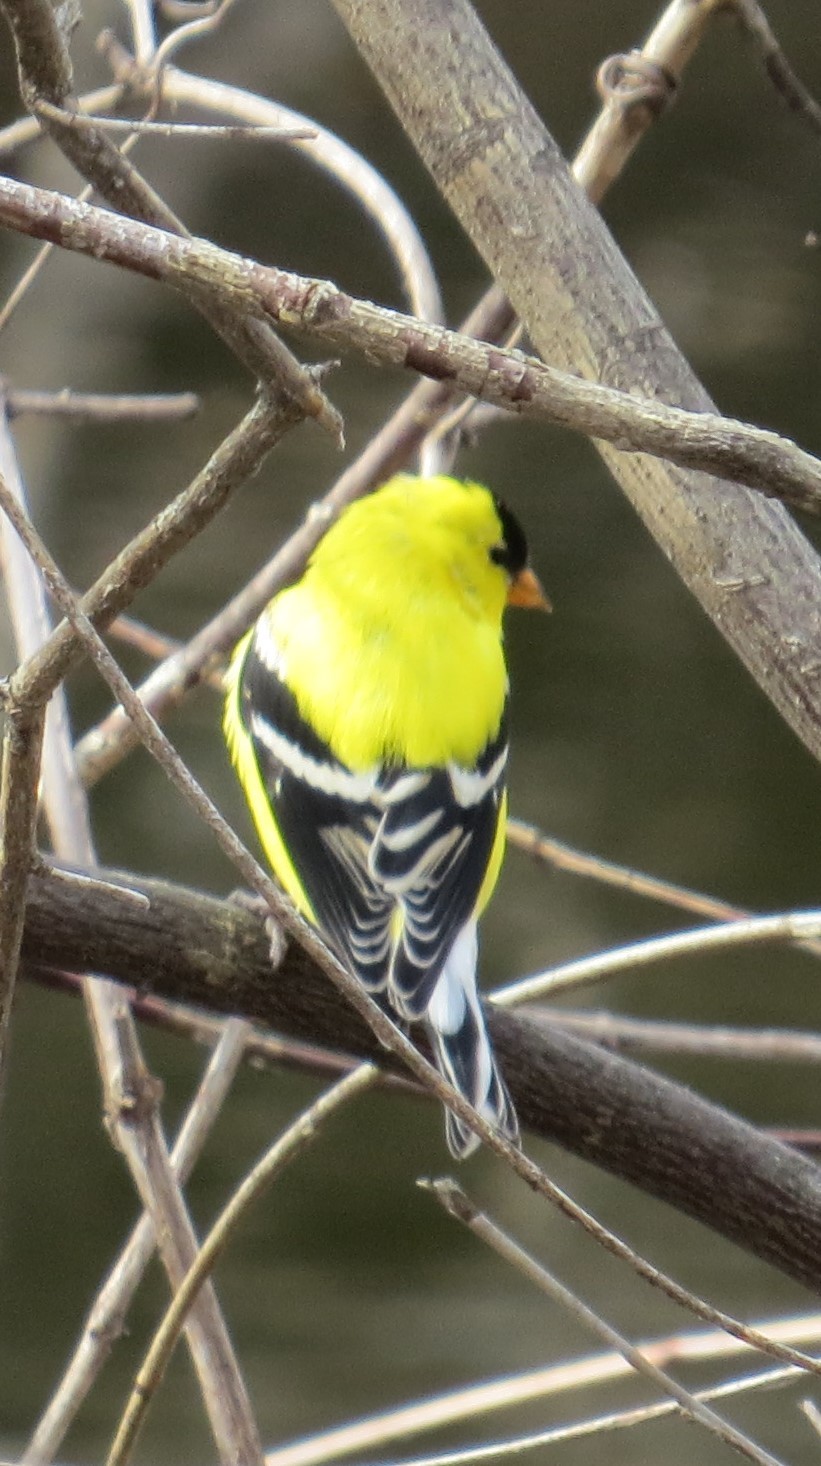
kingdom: Animalia
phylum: Chordata
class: Aves
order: Passeriformes
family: Fringillidae
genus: Spinus
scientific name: Spinus tristis
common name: American goldfinch
